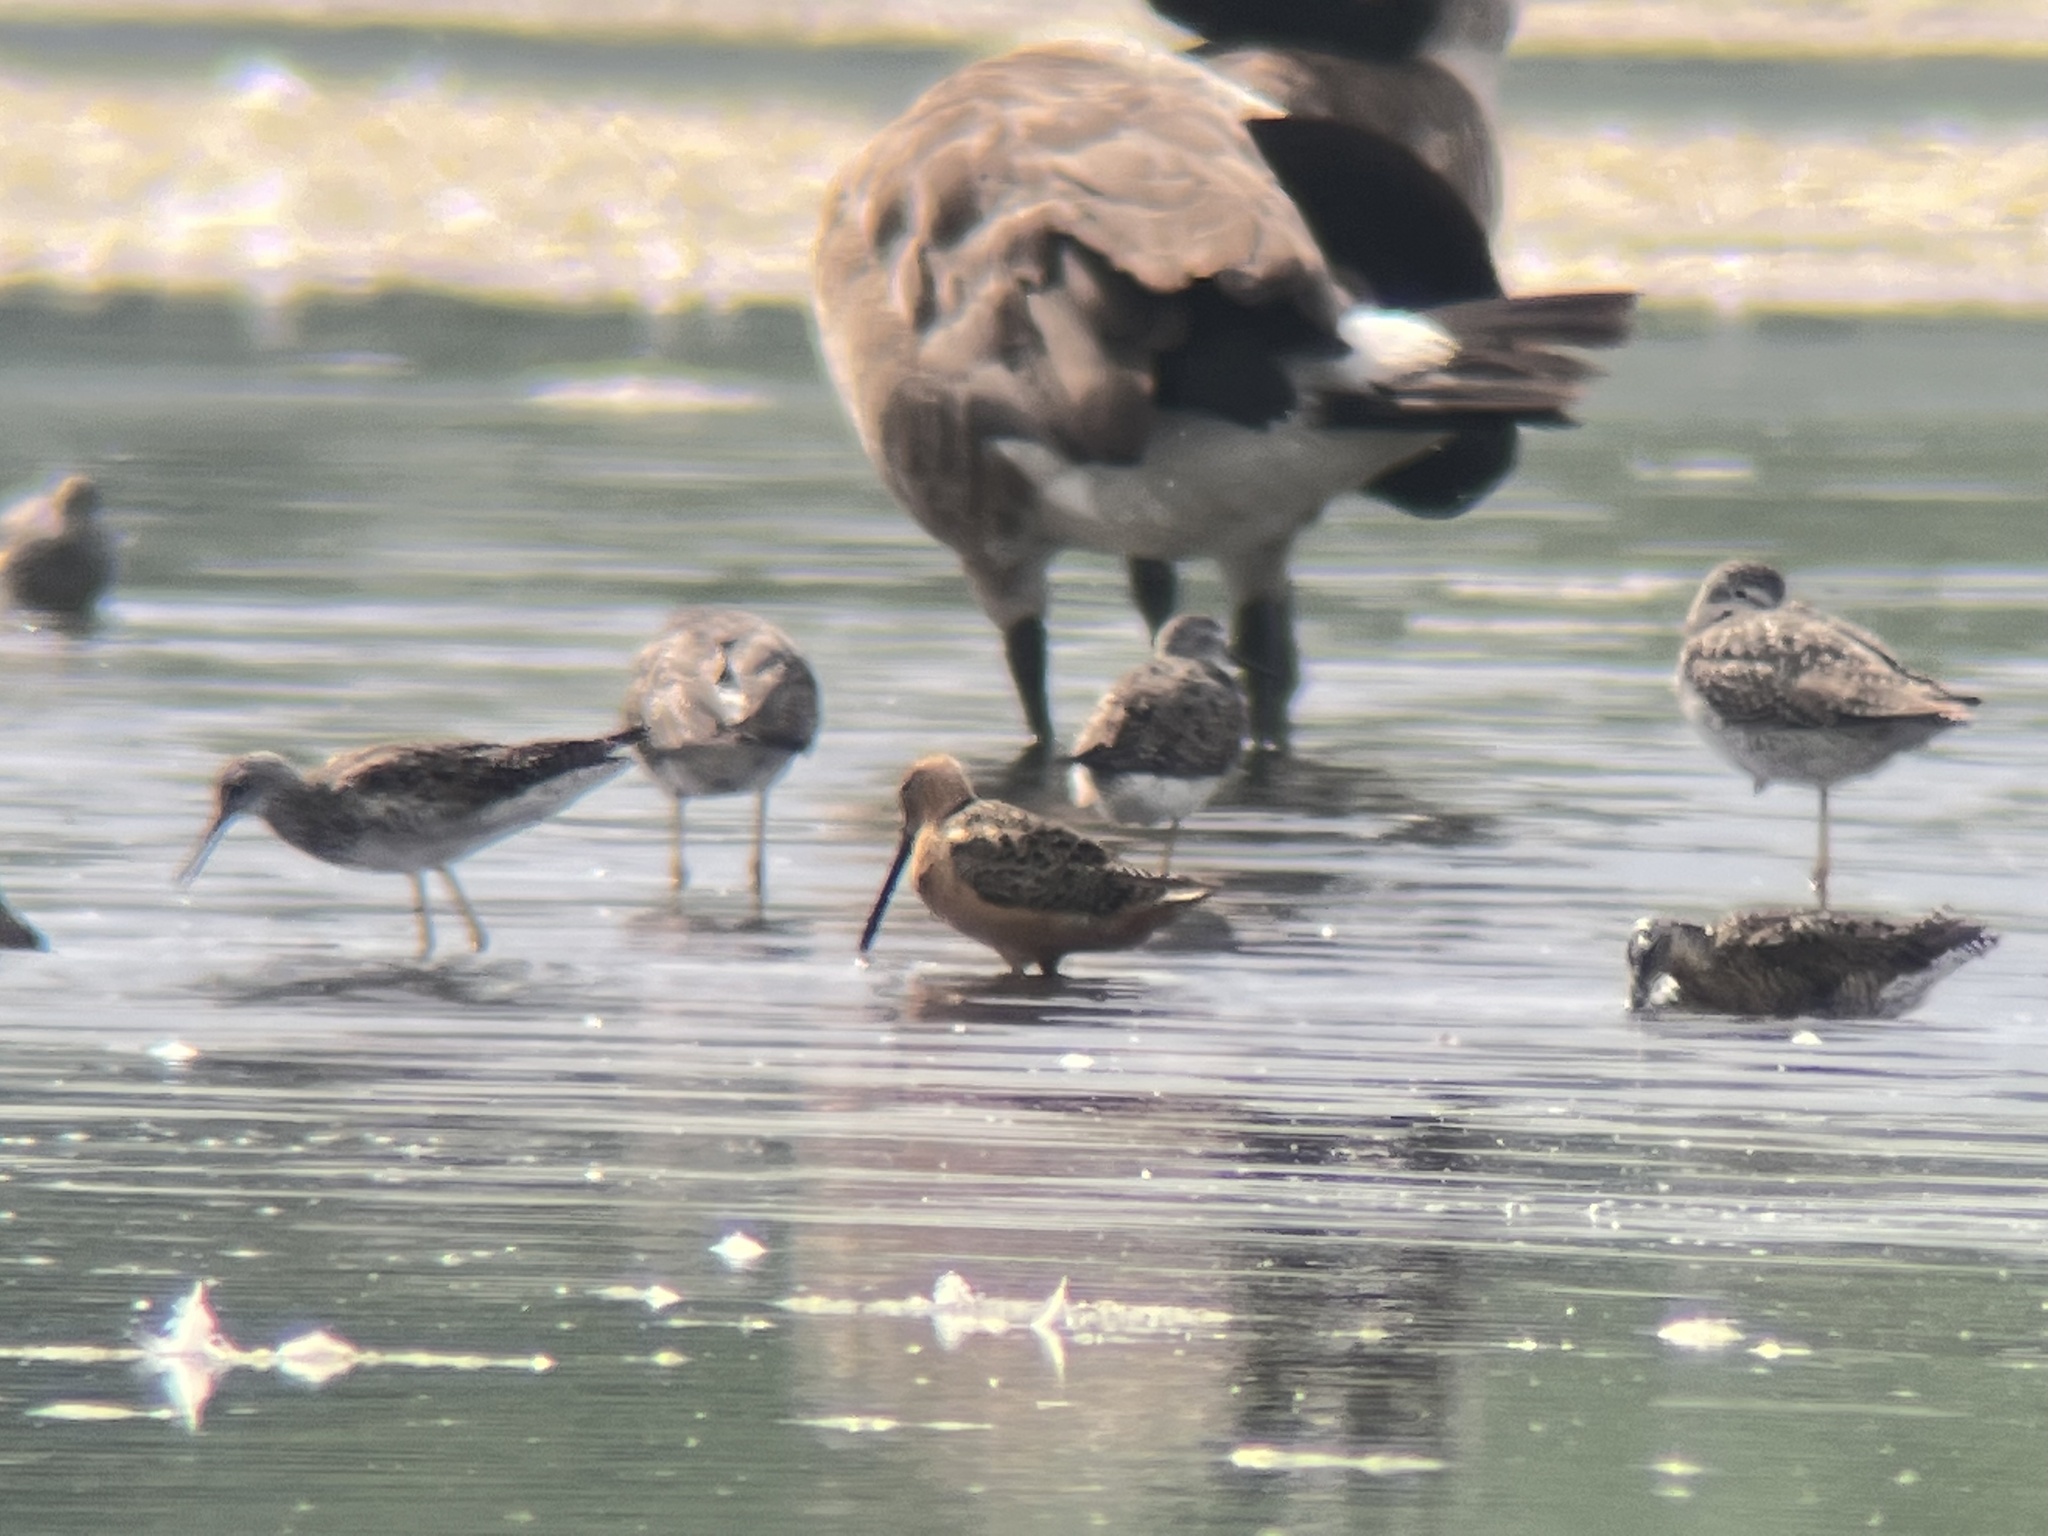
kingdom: Animalia
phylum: Chordata
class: Aves
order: Charadriiformes
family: Scolopacidae
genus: Limnodromus
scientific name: Limnodromus griseus
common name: Short-billed dowitcher
